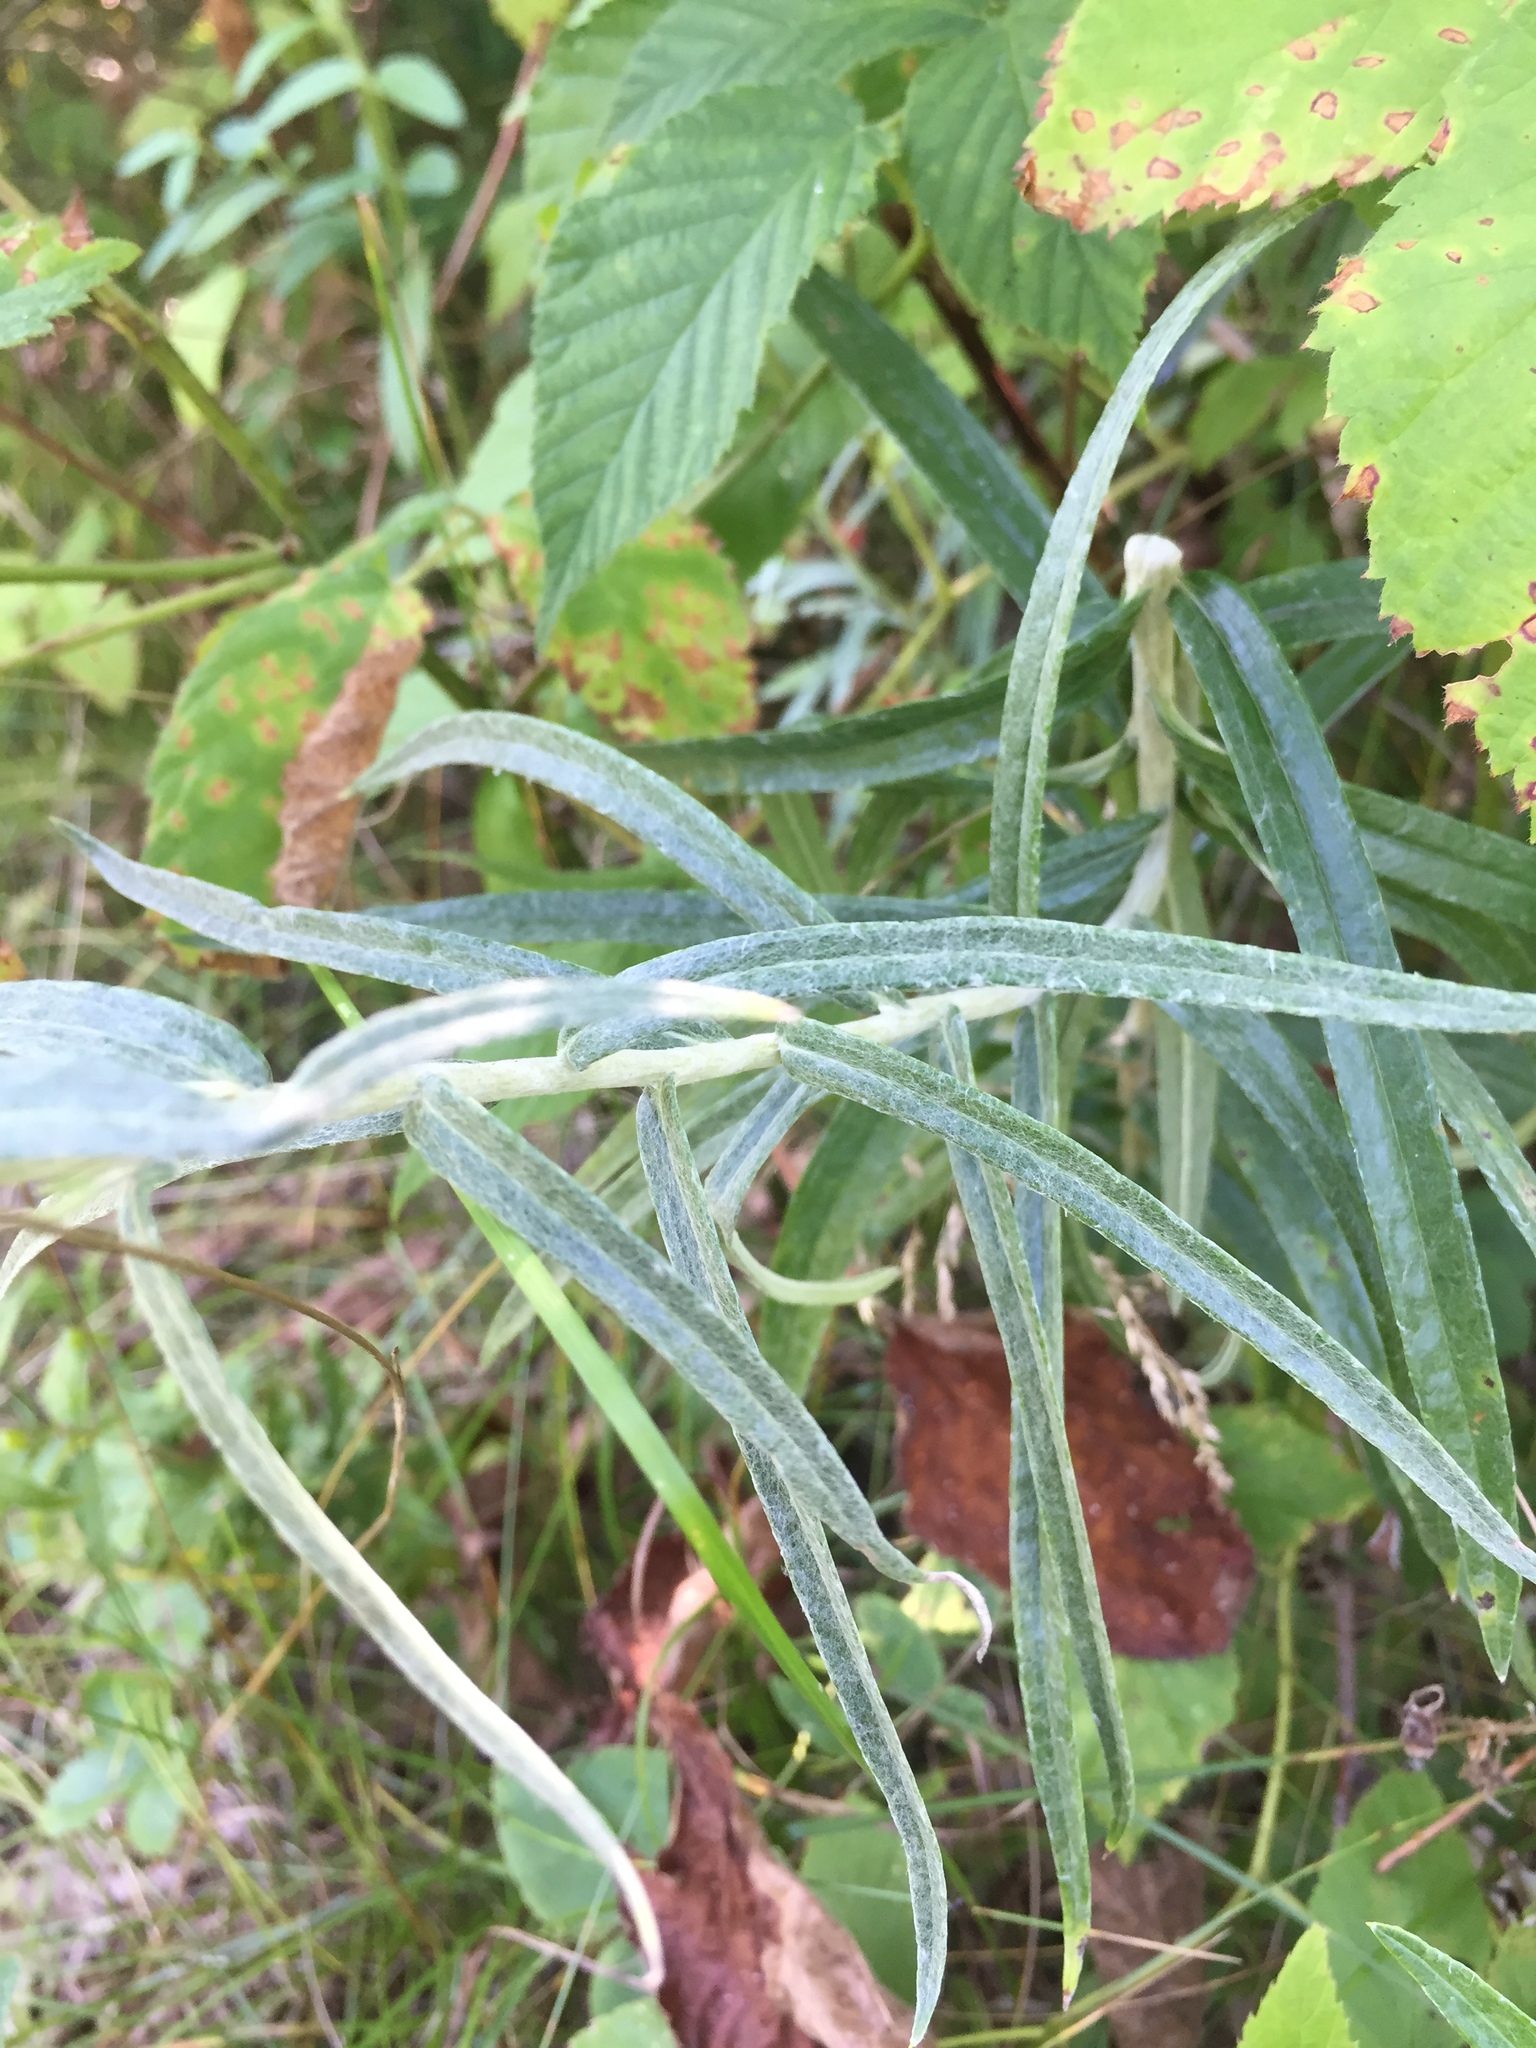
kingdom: Plantae
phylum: Tracheophyta
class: Magnoliopsida
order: Asterales
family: Asteraceae
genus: Anaphalis
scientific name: Anaphalis margaritacea
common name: Pearly everlasting
